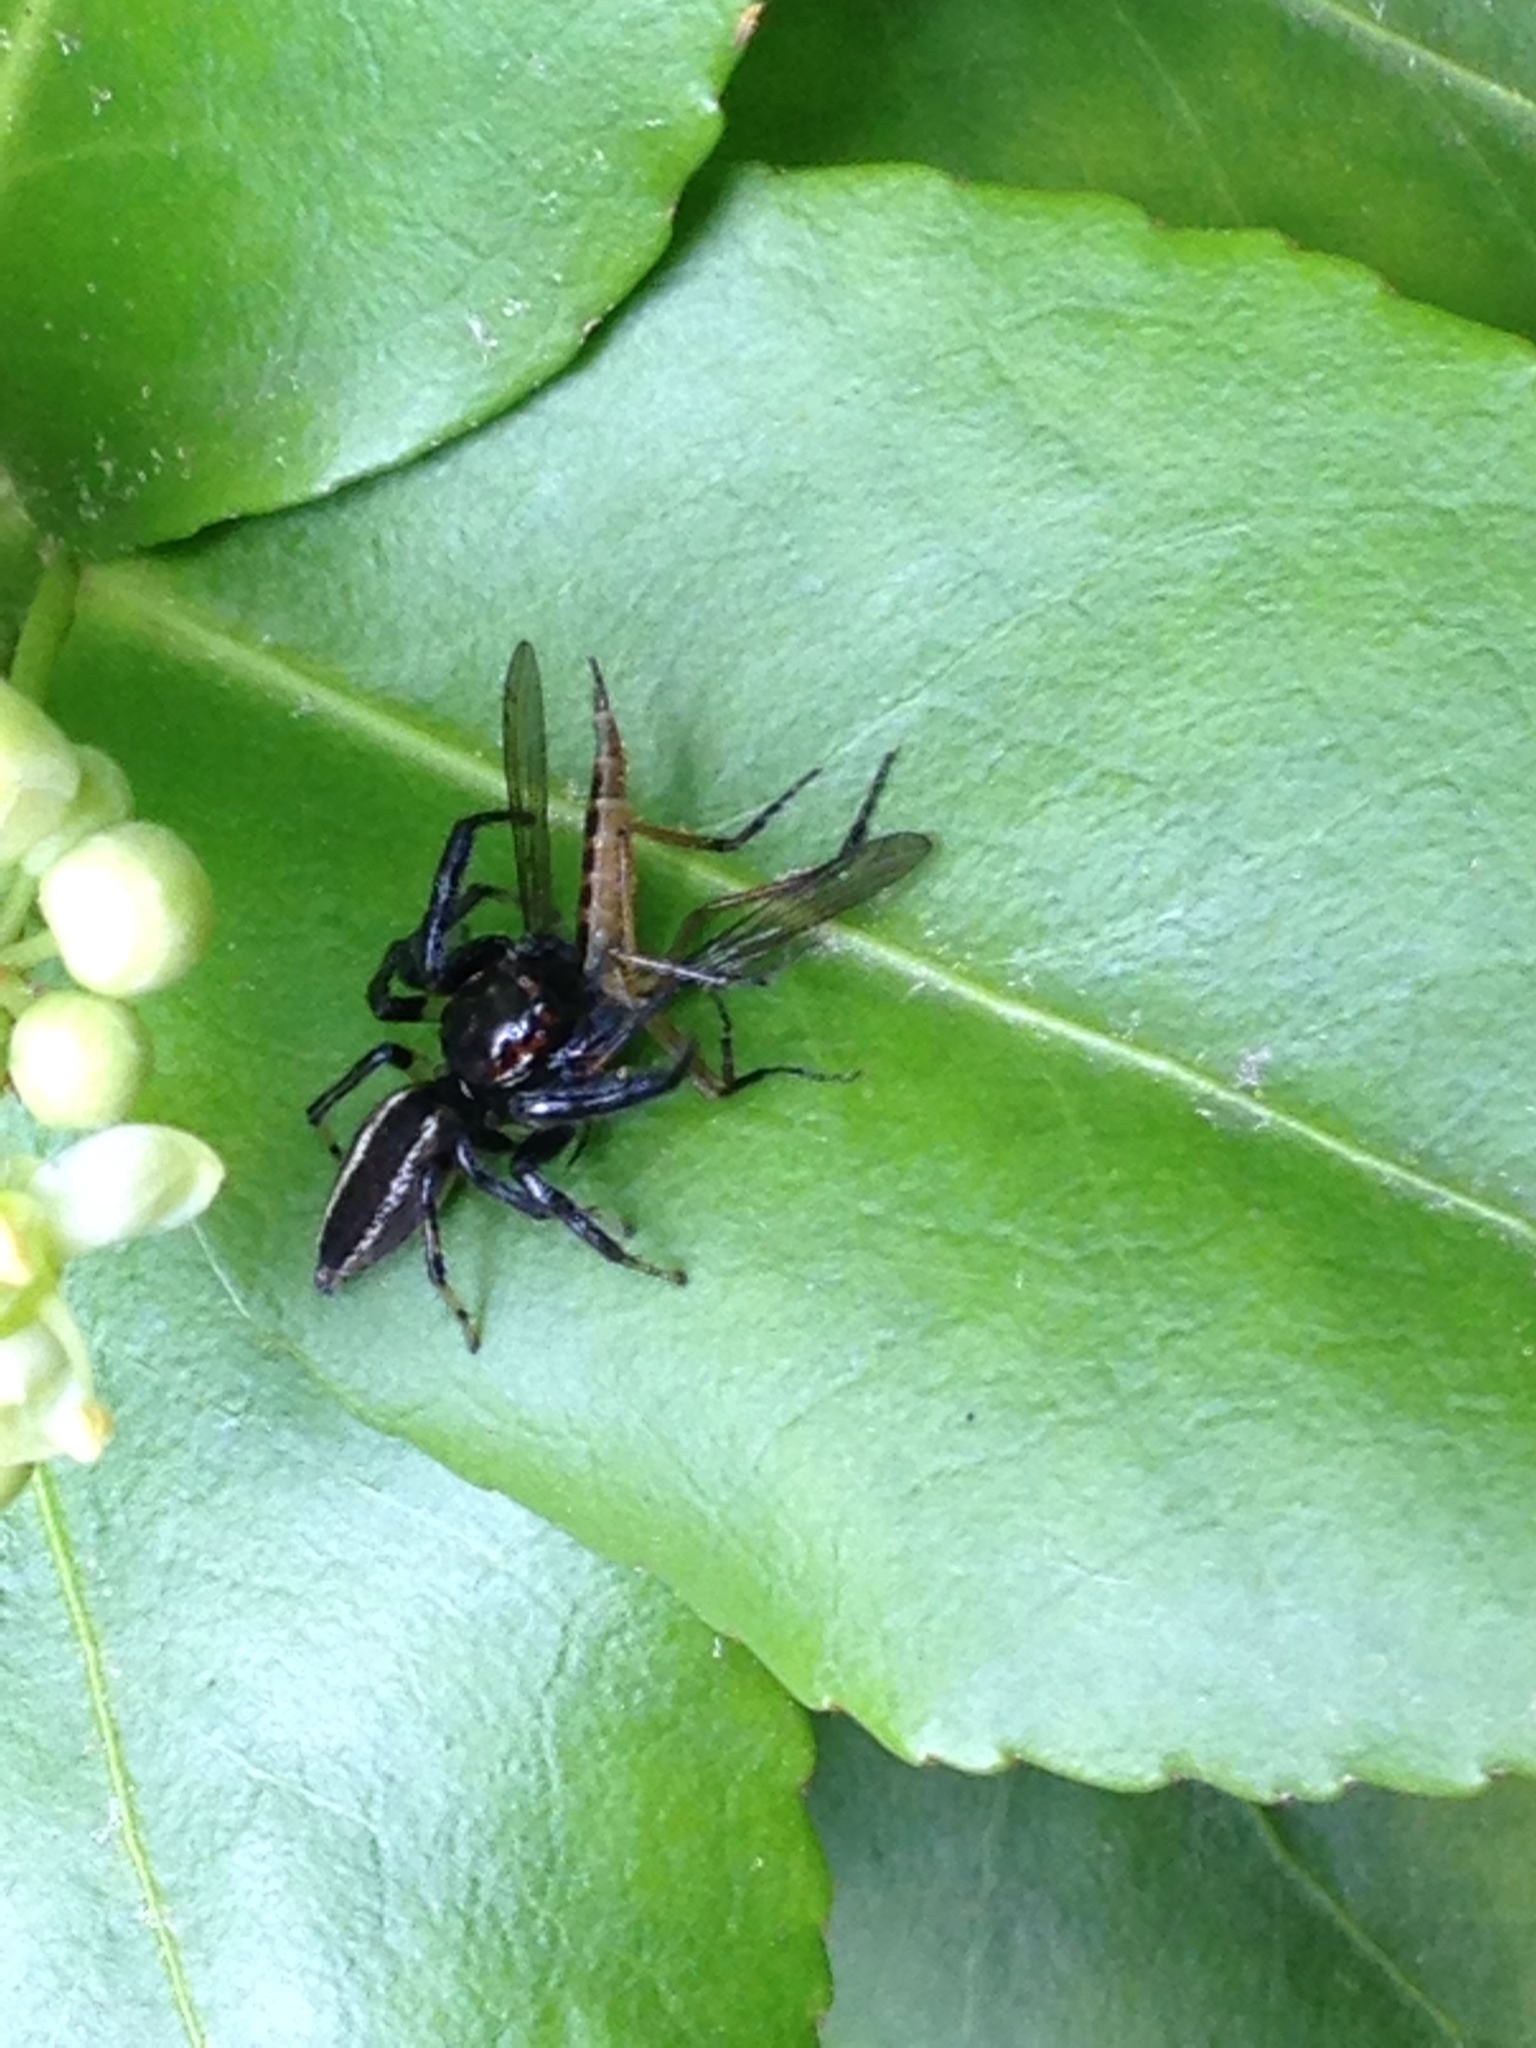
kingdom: Animalia
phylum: Arthropoda
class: Arachnida
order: Araneae
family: Salticidae
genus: Colonus
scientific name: Colonus sylvanus
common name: Jumping spiders
